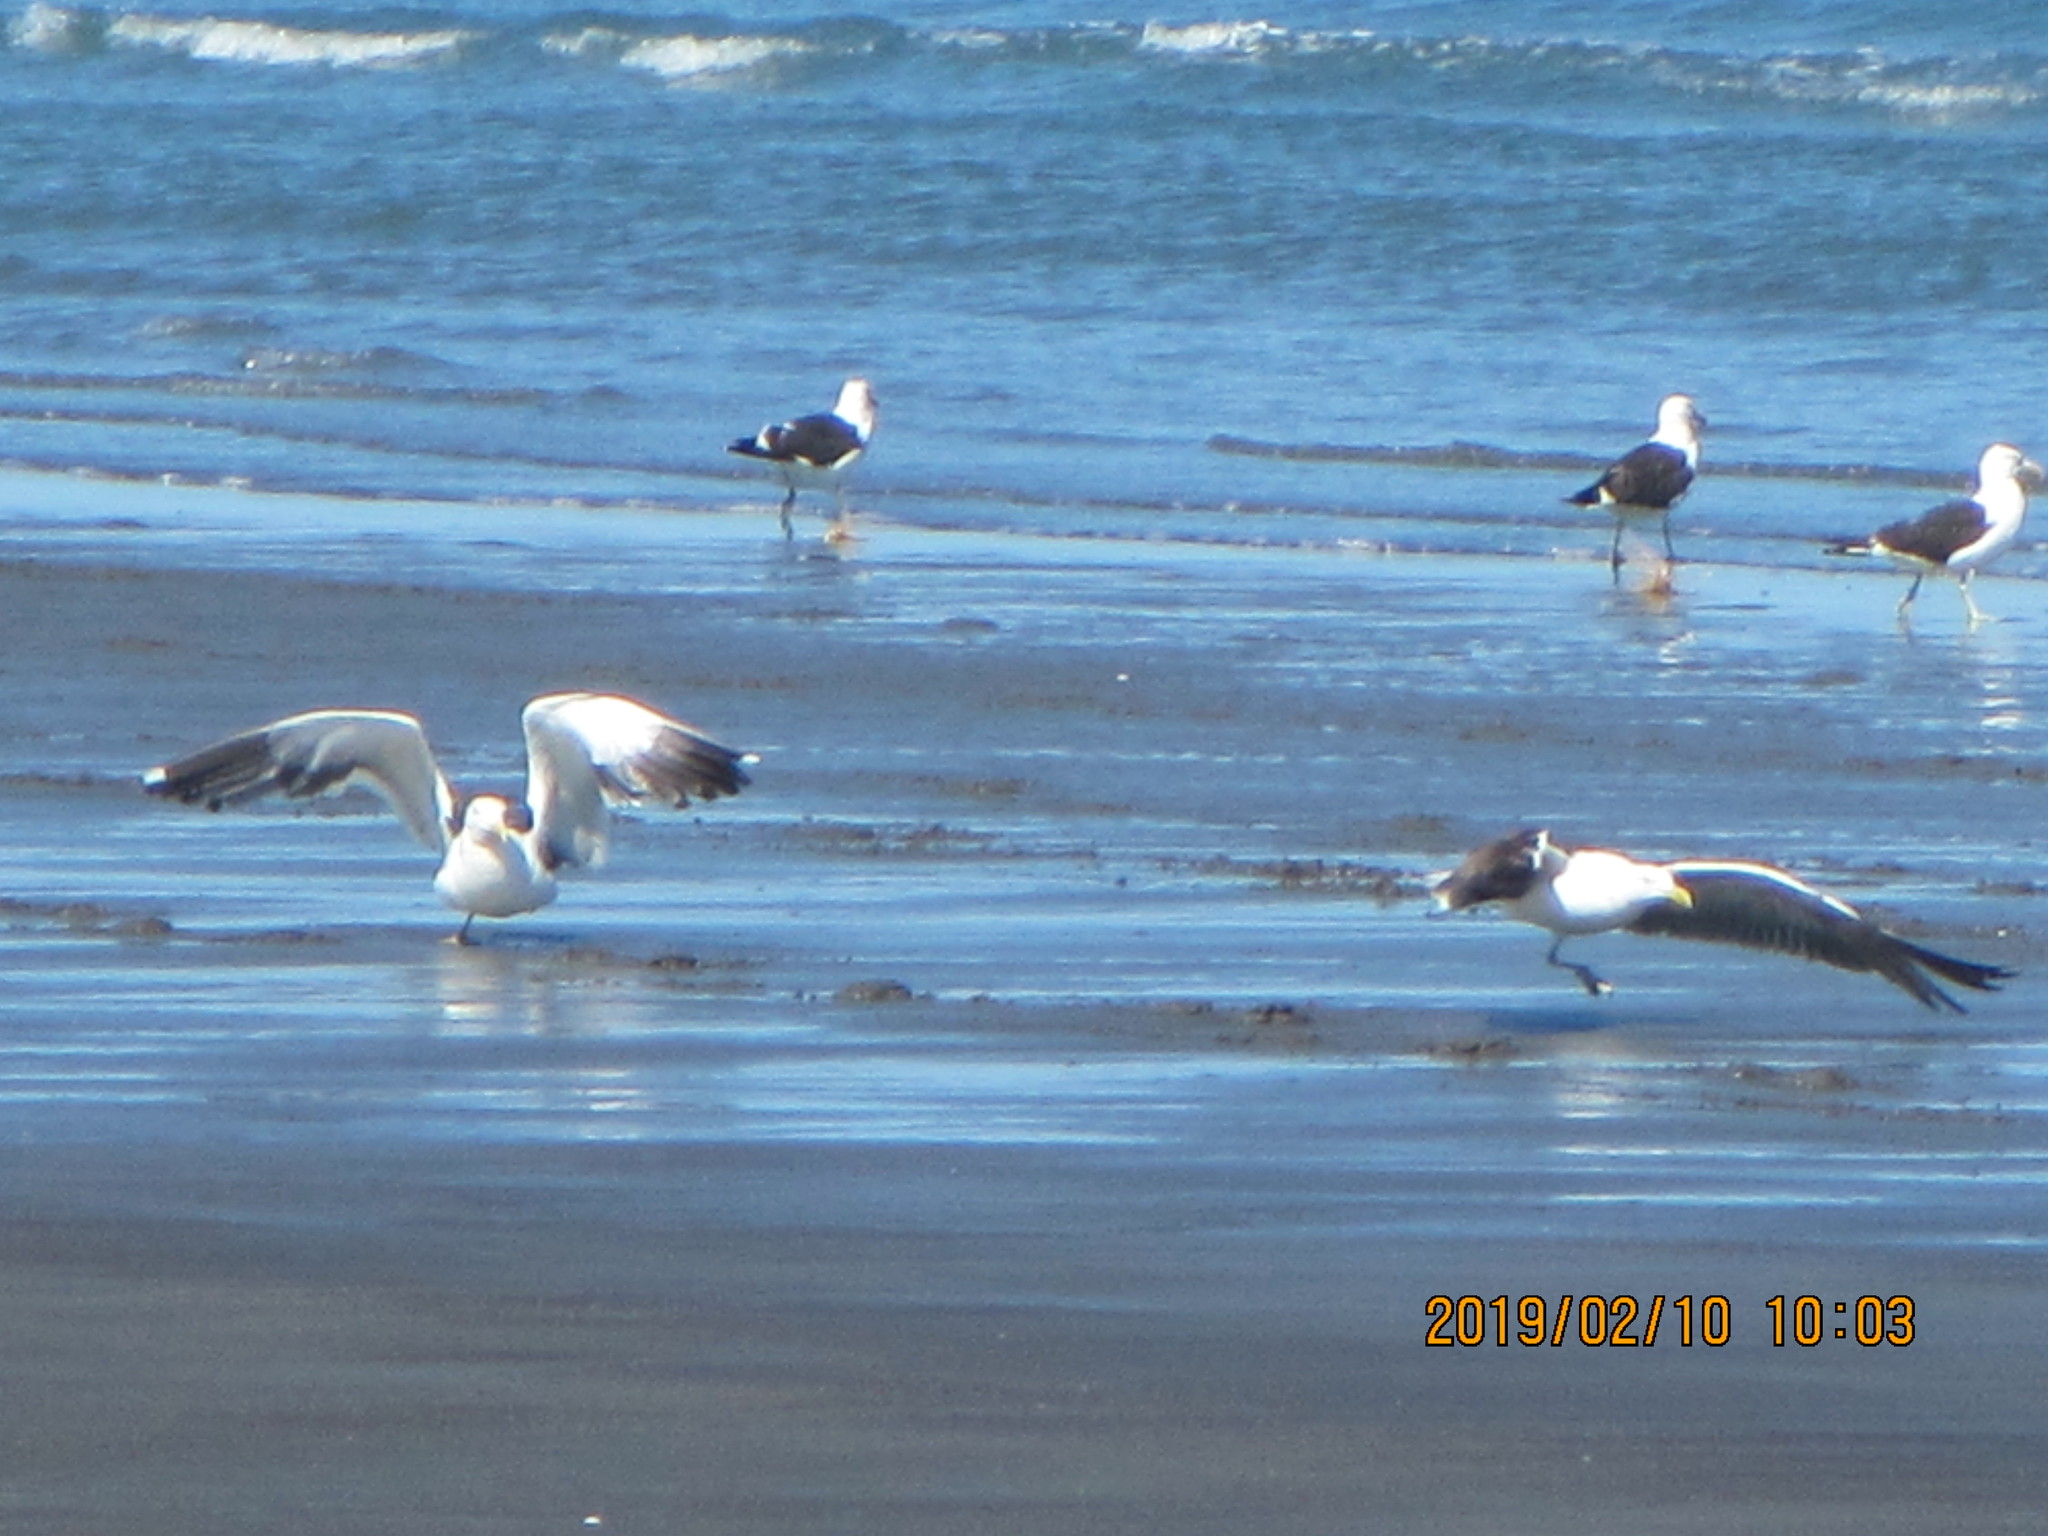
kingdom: Animalia
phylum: Chordata
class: Aves
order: Charadriiformes
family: Laridae
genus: Larus
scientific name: Larus dominicanus
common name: Kelp gull
